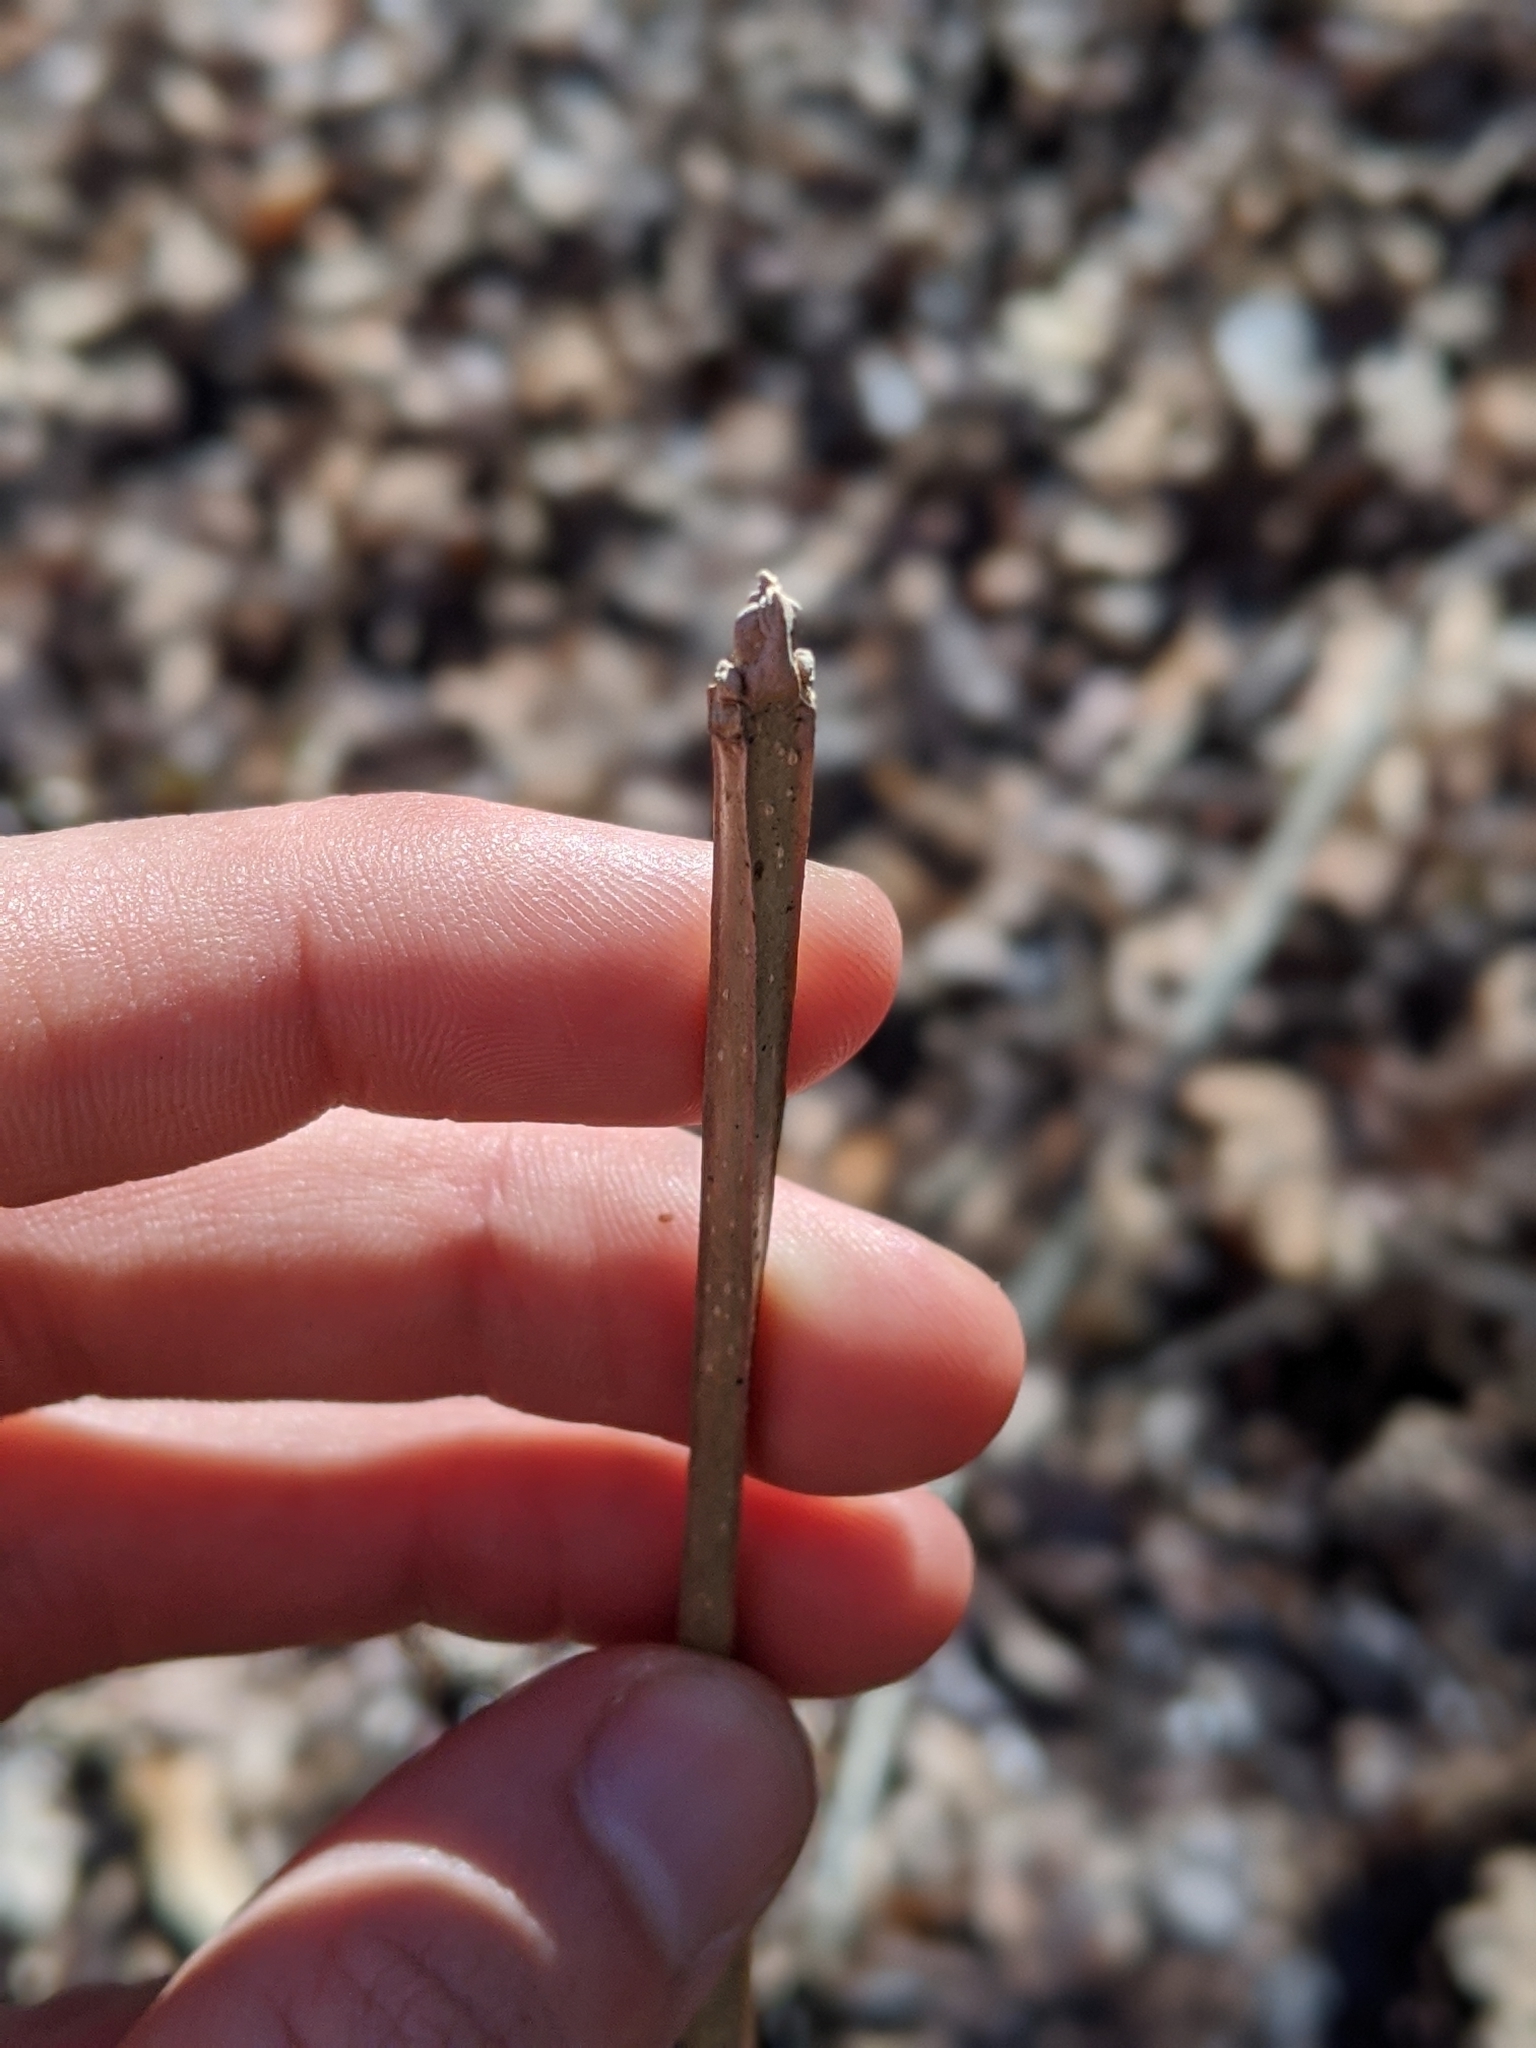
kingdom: Plantae
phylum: Tracheophyta
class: Magnoliopsida
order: Lamiales
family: Oleaceae
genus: Fraxinus
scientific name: Fraxinus quadrangulata
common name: Blue ash
